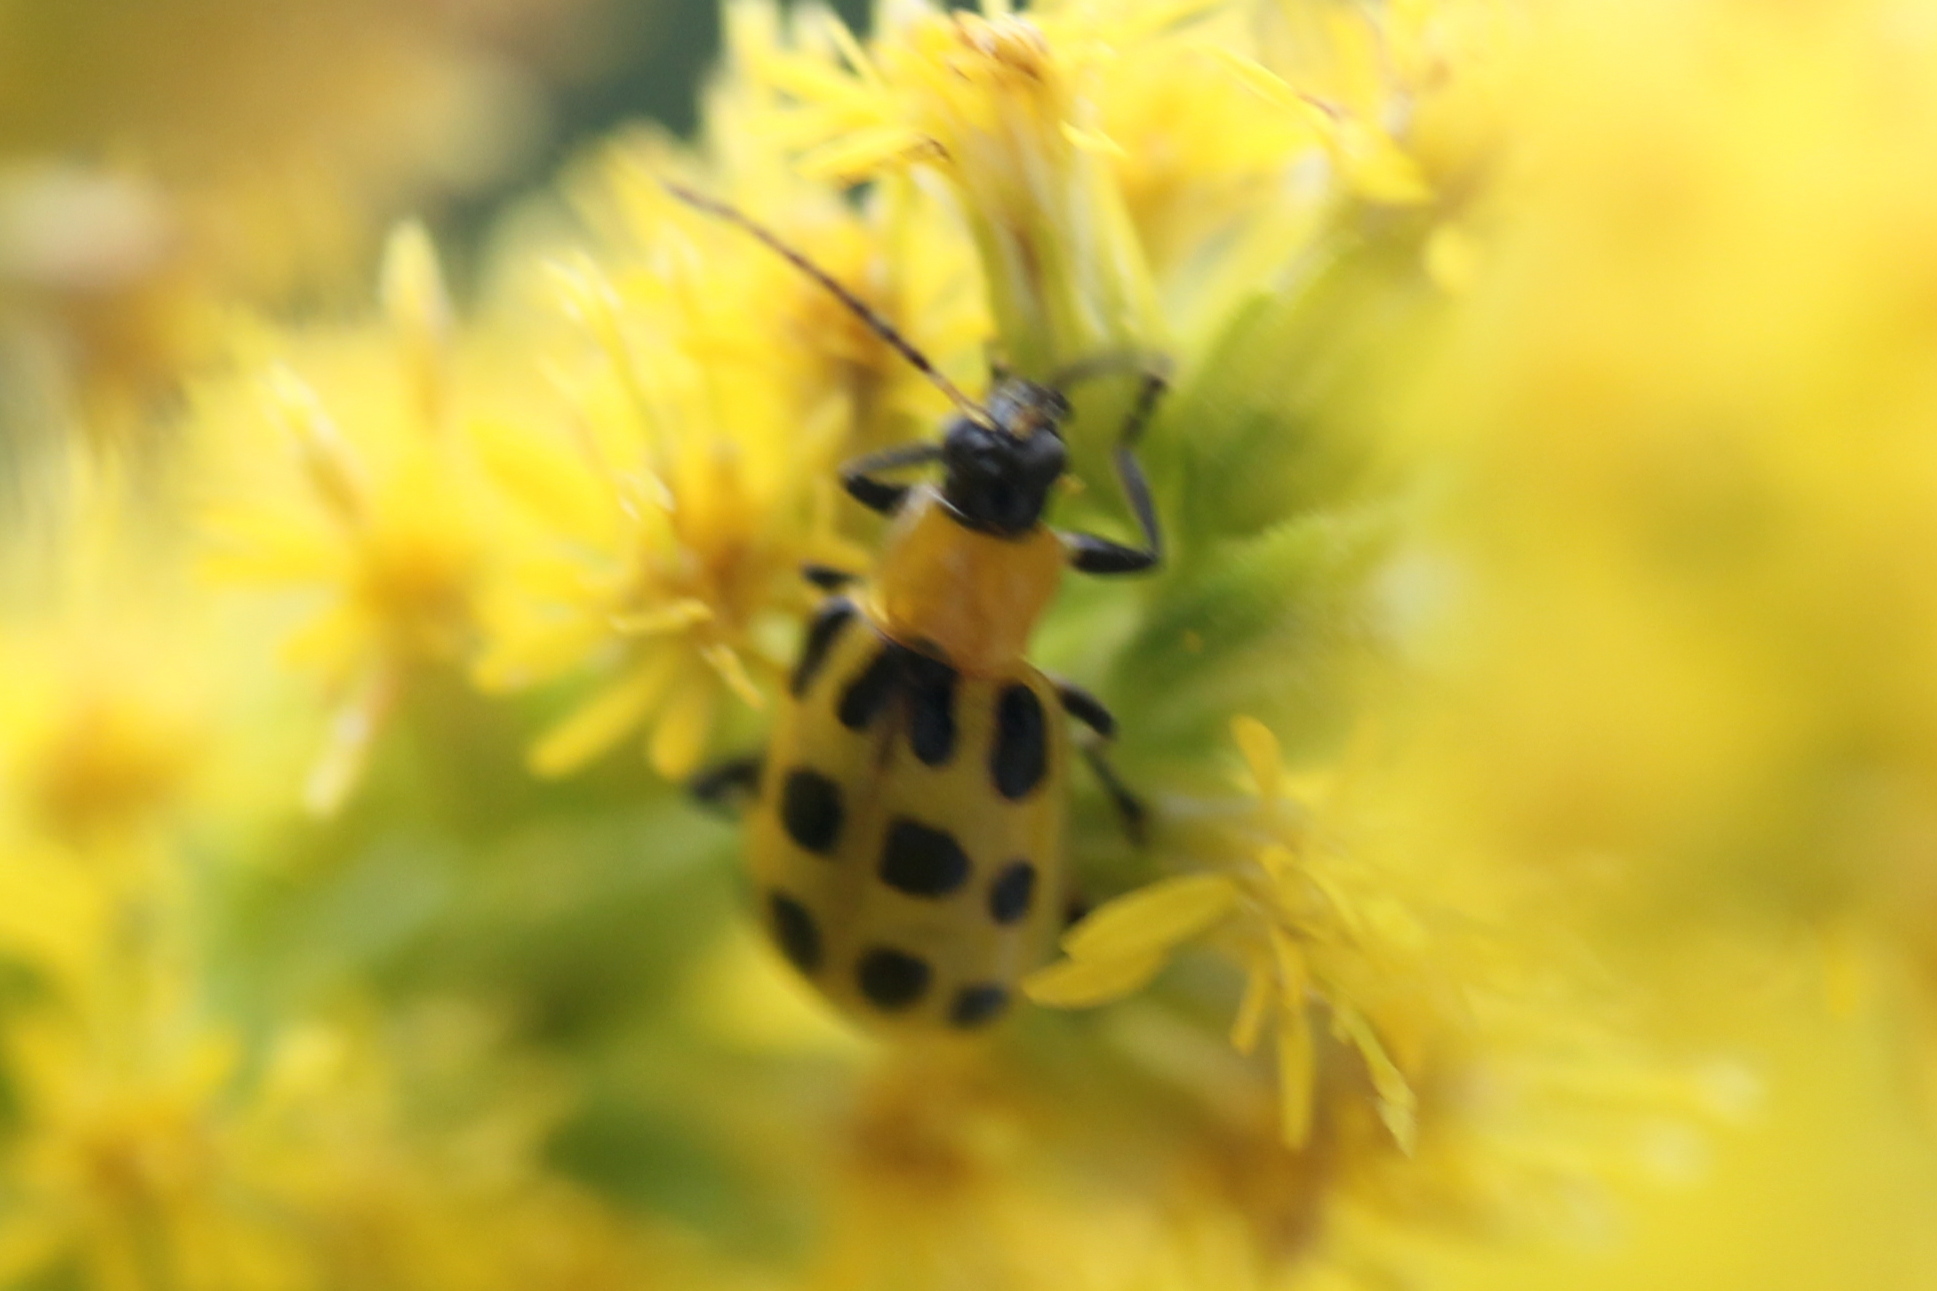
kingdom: Animalia
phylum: Arthropoda
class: Insecta
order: Coleoptera
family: Chrysomelidae
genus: Diabrotica
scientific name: Diabrotica undecimpunctata
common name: Spotted cucumber beetle
